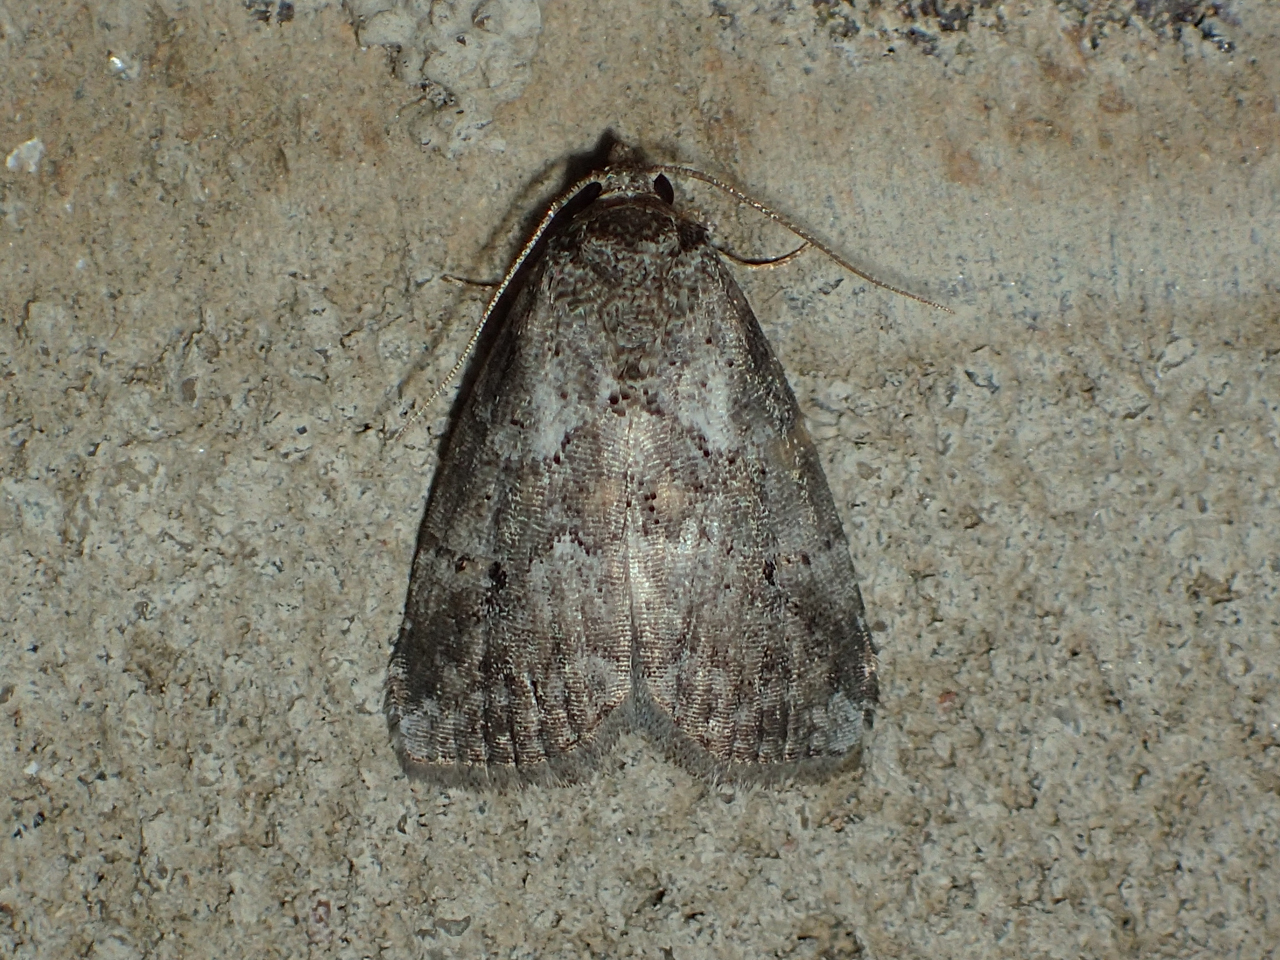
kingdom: Animalia
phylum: Arthropoda
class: Insecta
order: Lepidoptera
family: Erebidae
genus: Hyperstrotia
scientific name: Hyperstrotia nana
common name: White-lined graylet
